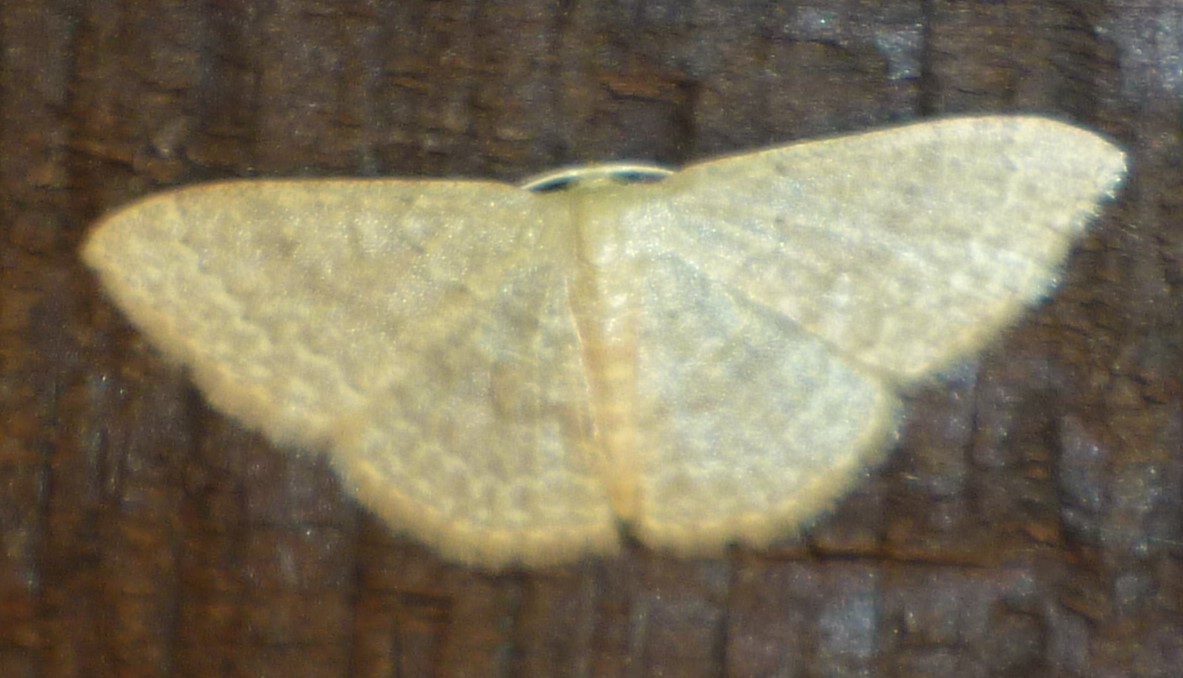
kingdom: Animalia
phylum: Arthropoda
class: Insecta
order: Lepidoptera
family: Geometridae
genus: Pleuroprucha
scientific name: Pleuroprucha insulsaria
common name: Common tan wave
